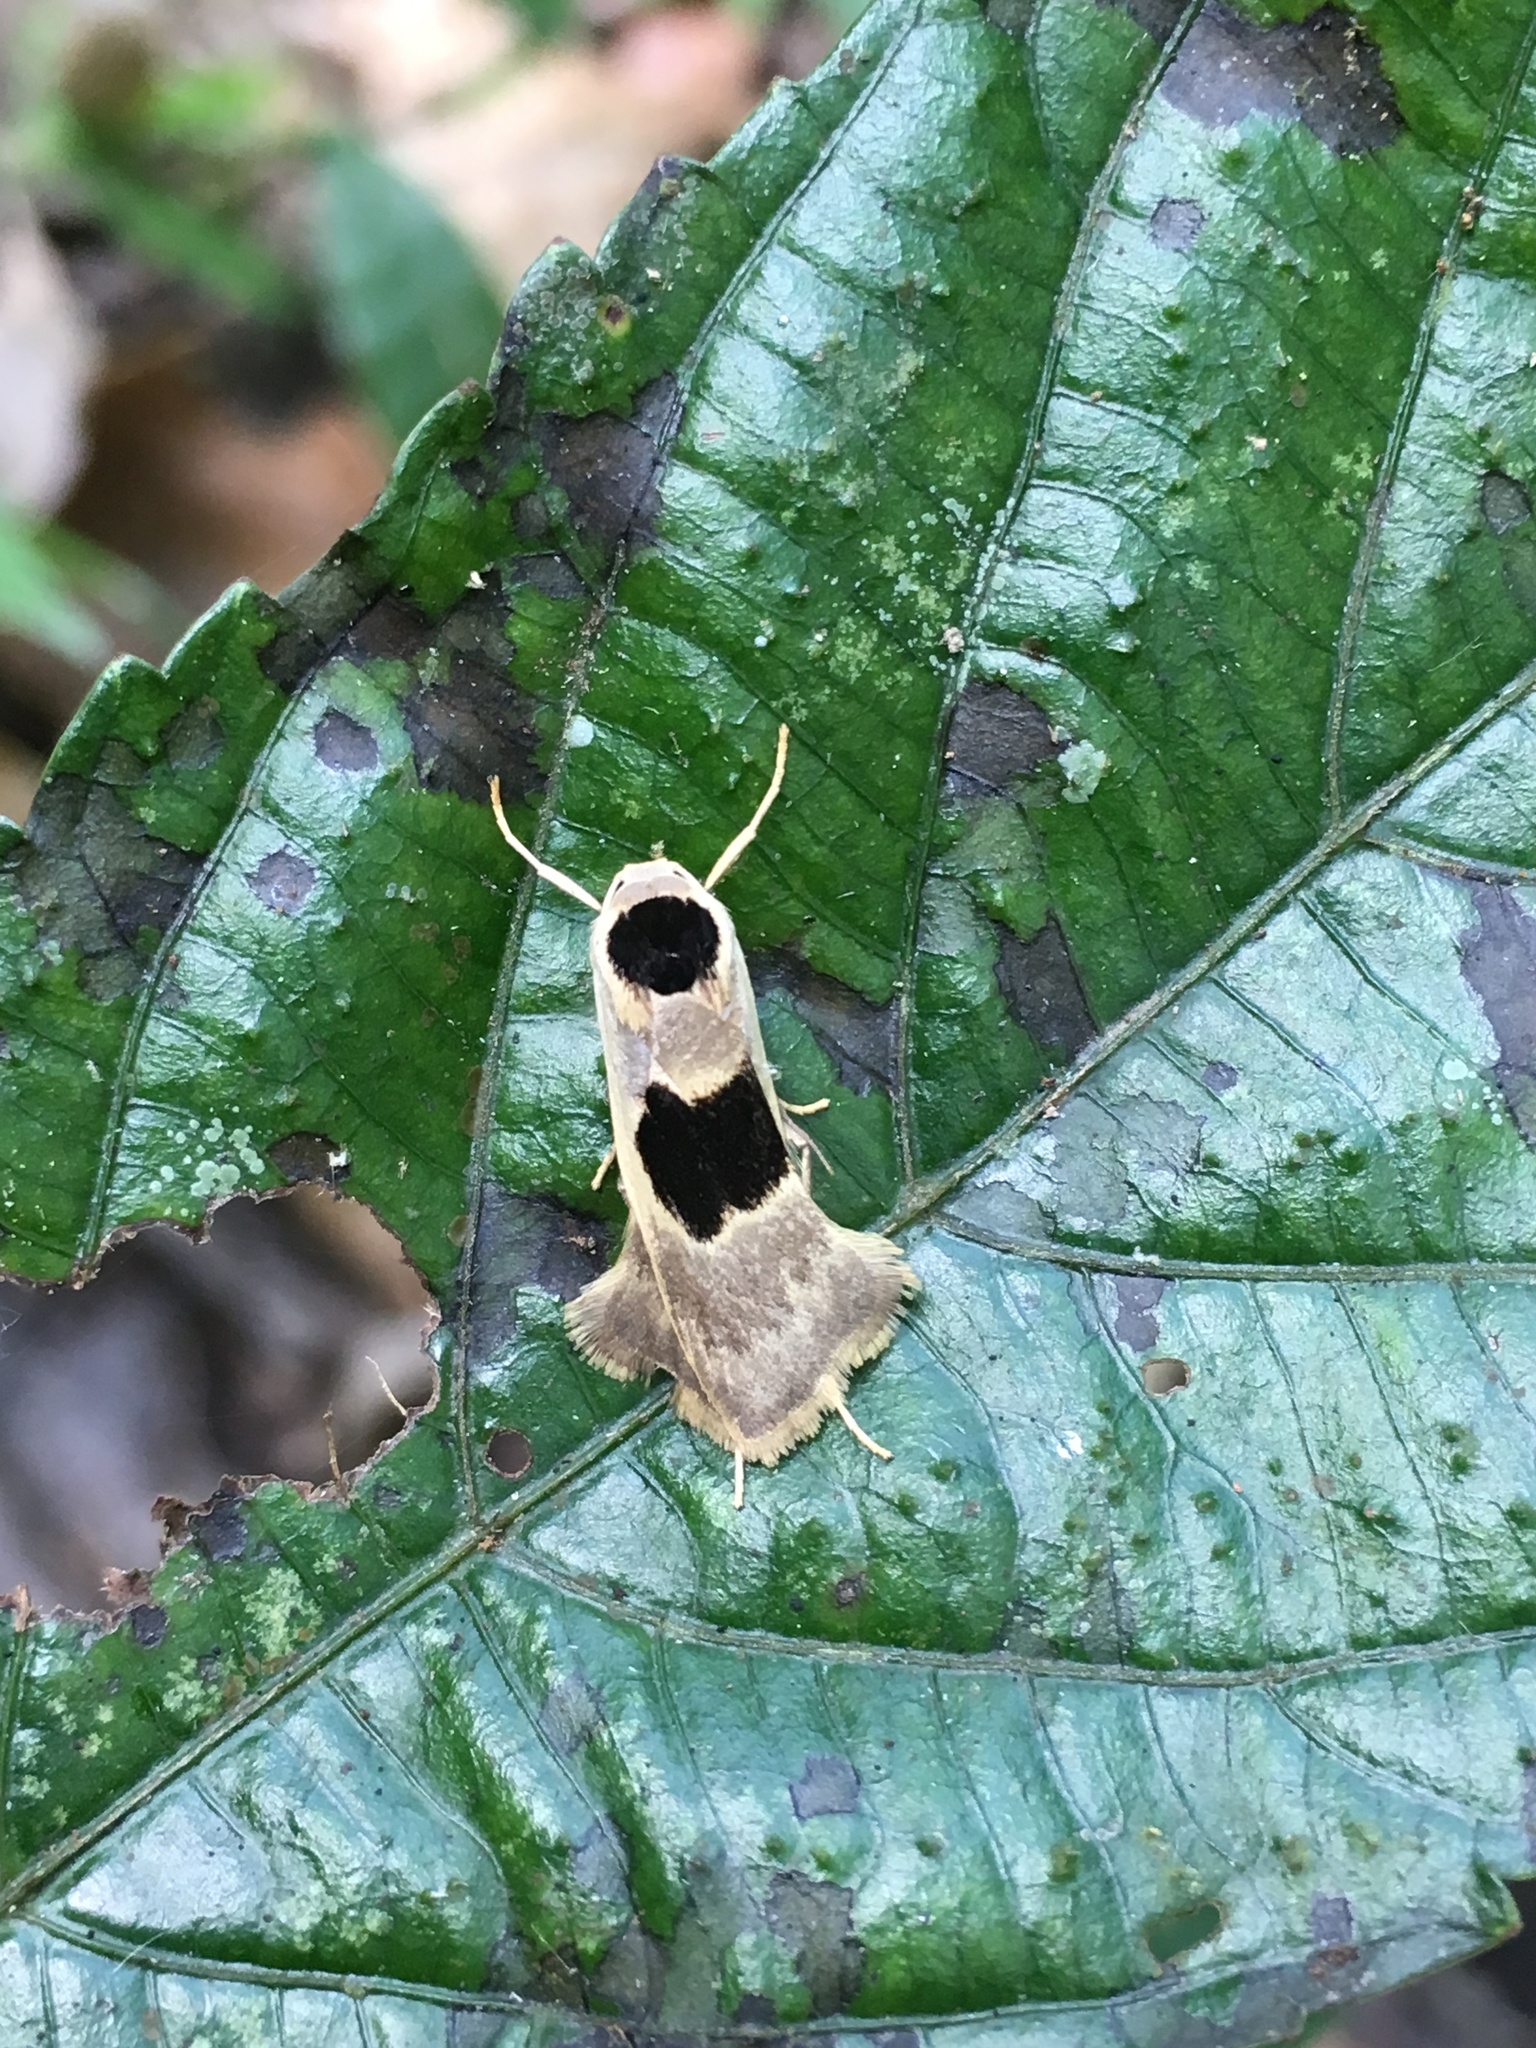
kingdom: Animalia
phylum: Arthropoda
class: Insecta
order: Lepidoptera
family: Erebidae
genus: Teulisna
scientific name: Teulisna karena
